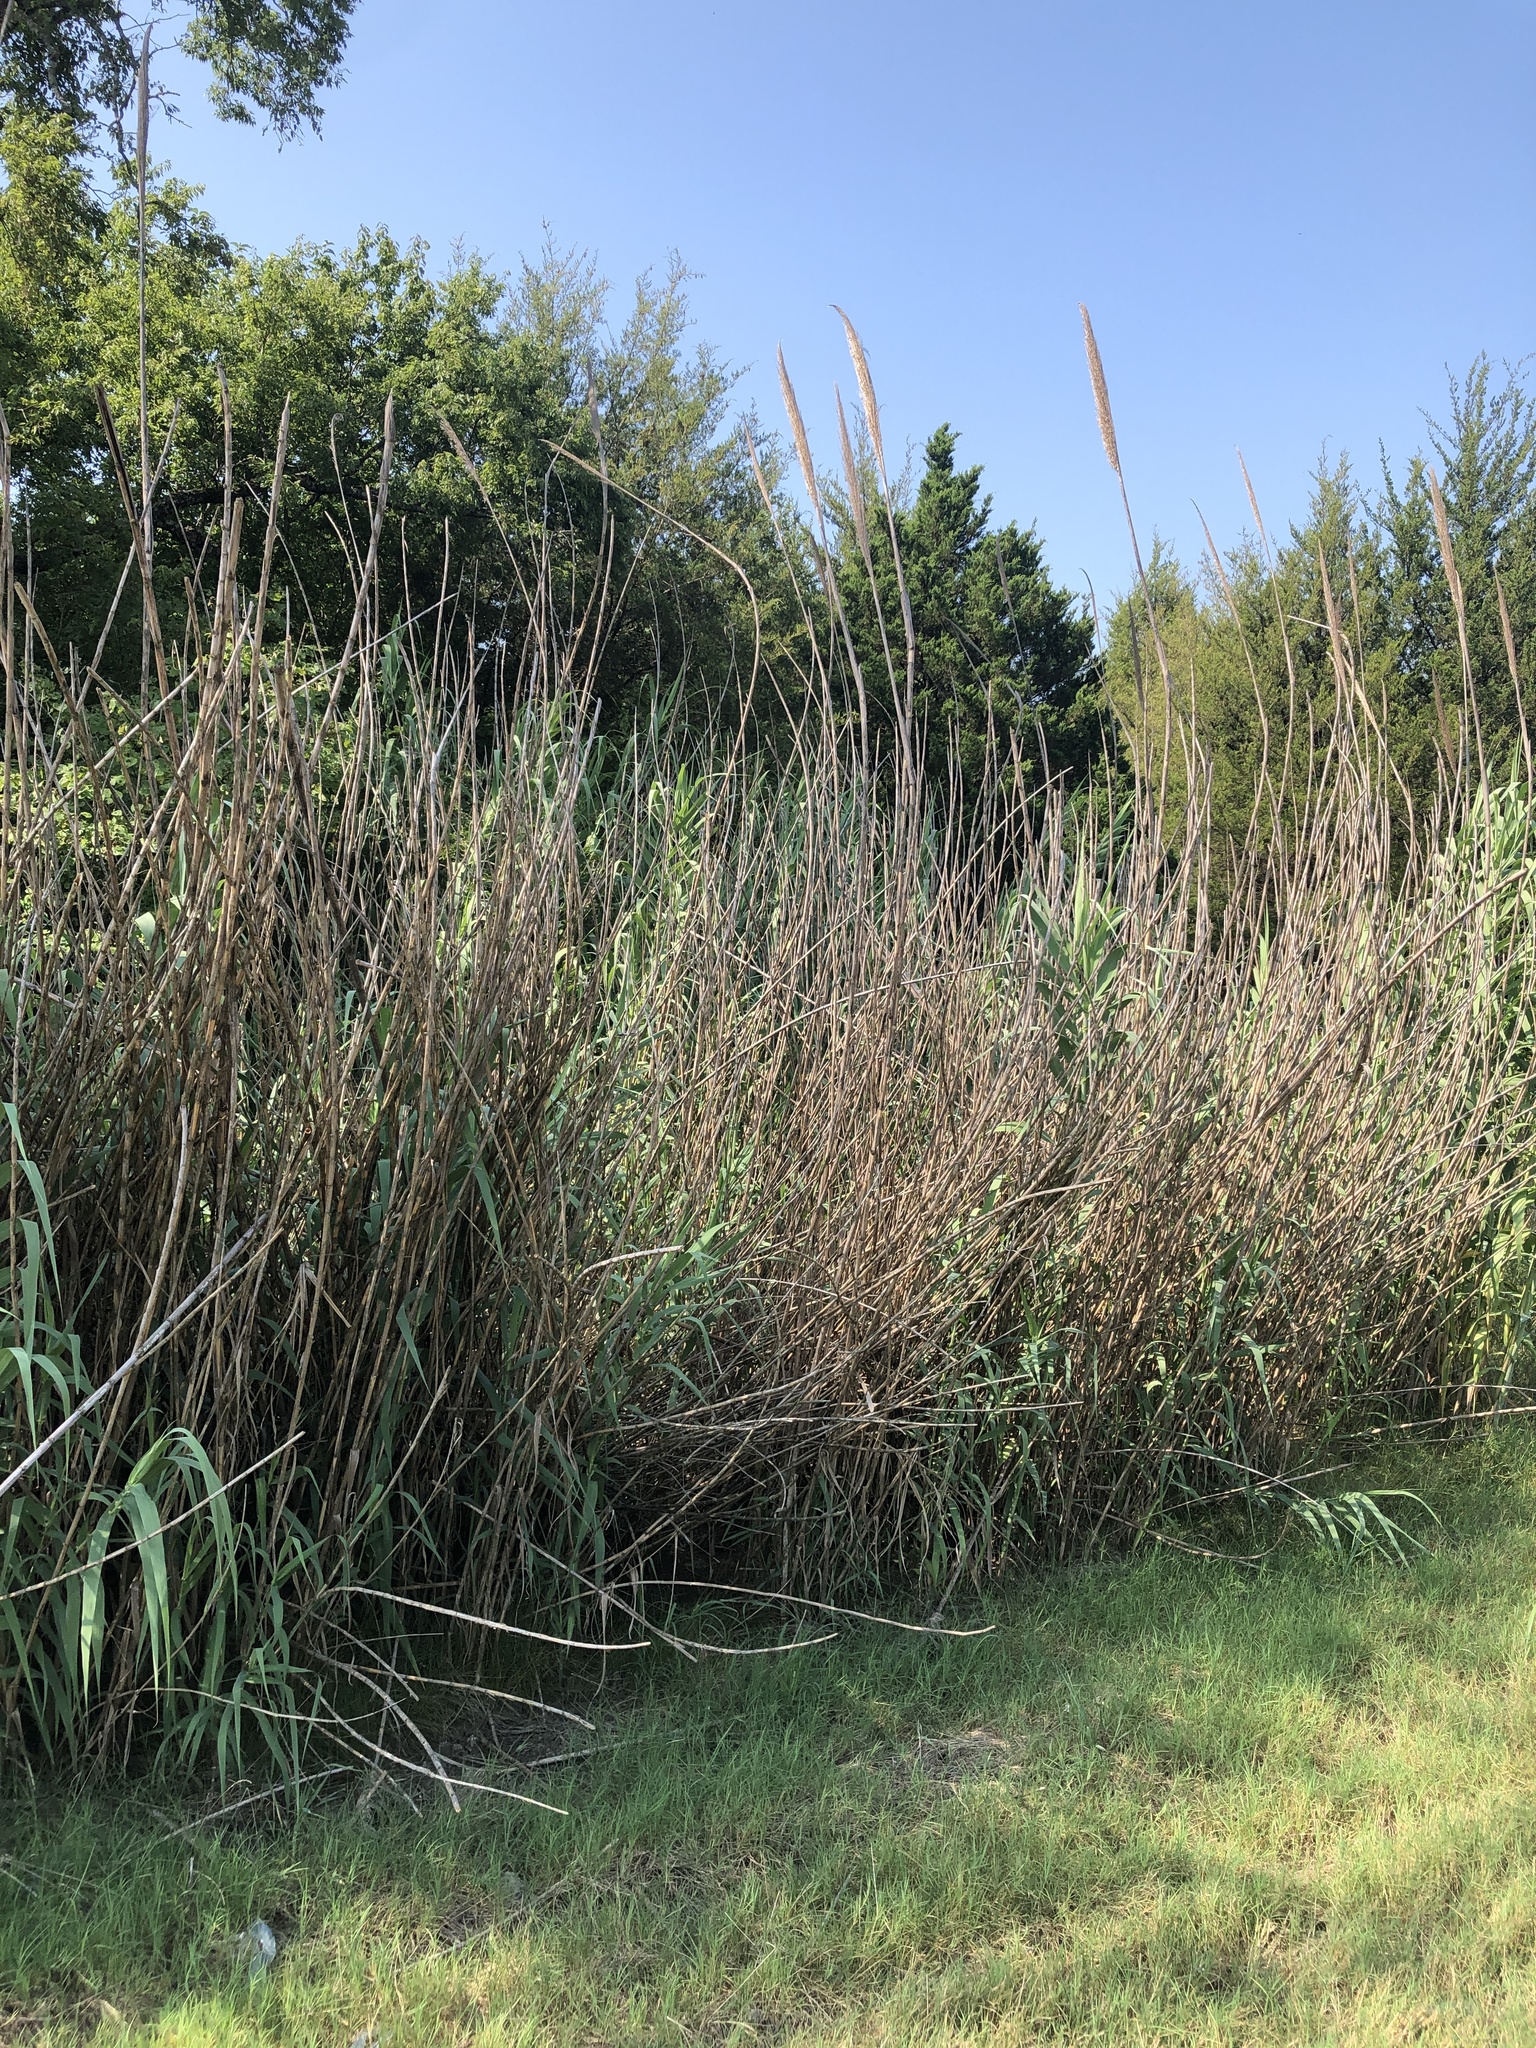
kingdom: Plantae
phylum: Tracheophyta
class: Liliopsida
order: Poales
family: Poaceae
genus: Arundo
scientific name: Arundo donax
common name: Giant reed
